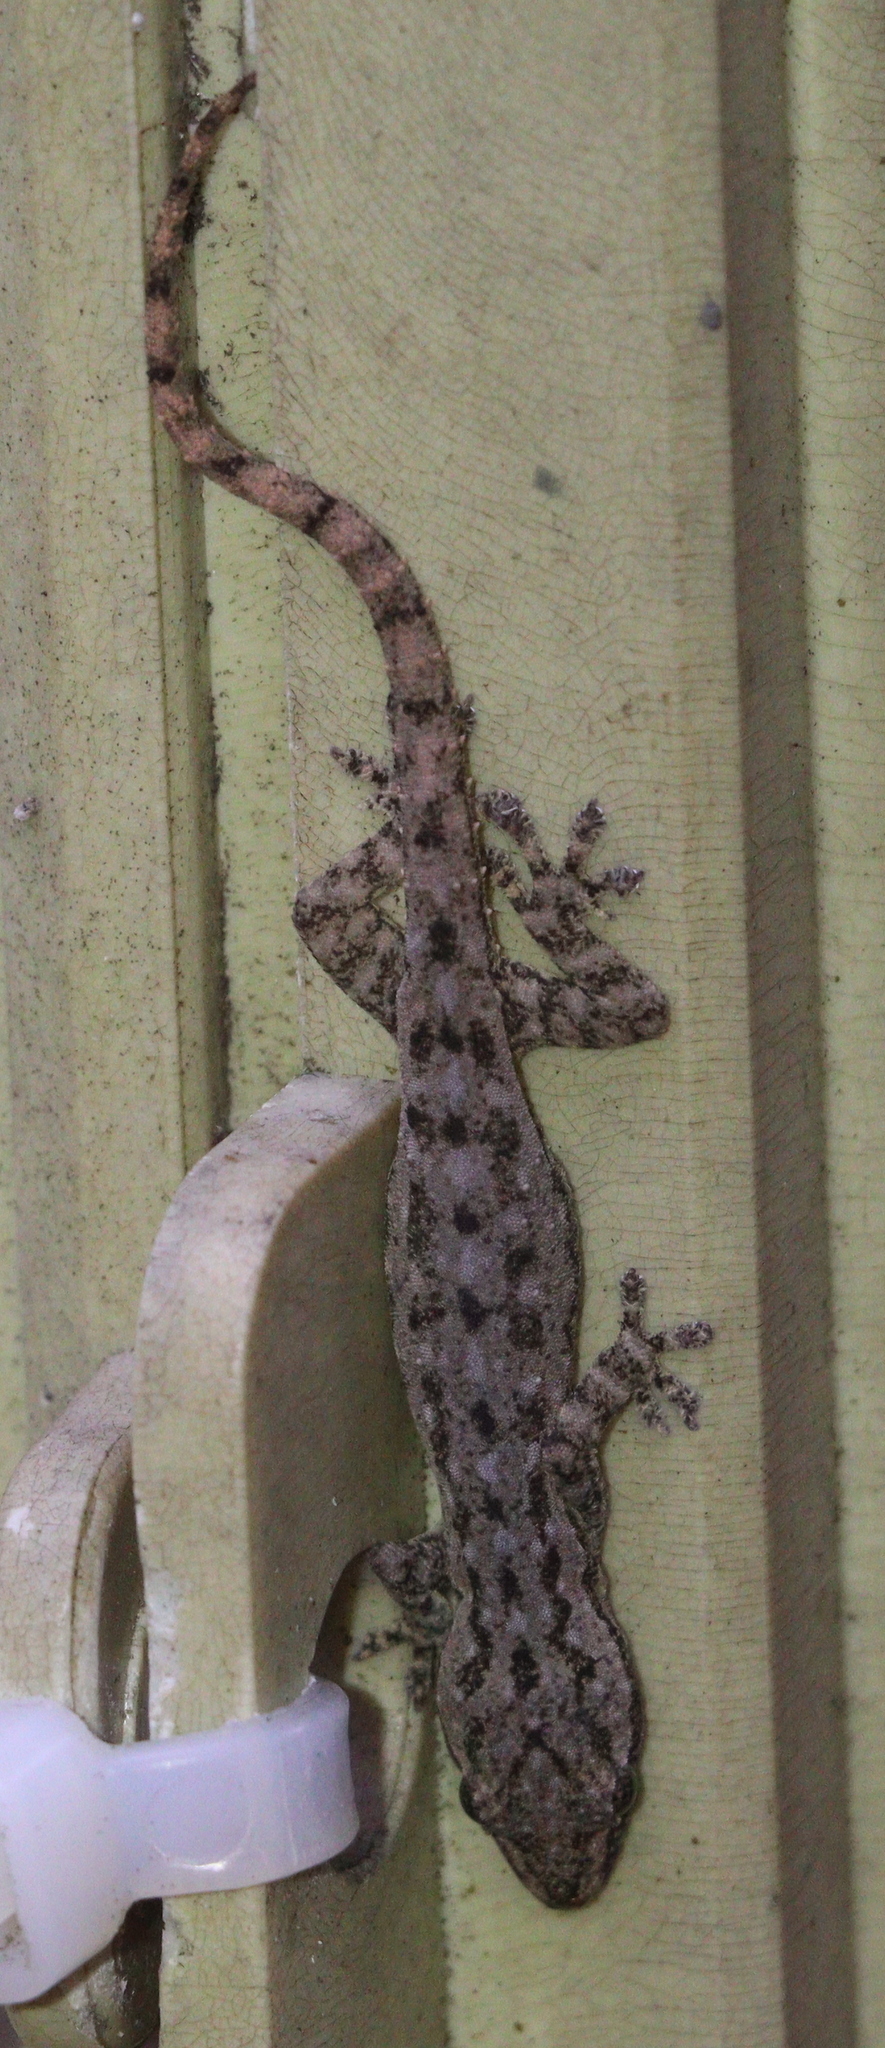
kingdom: Animalia
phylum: Chordata
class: Squamata
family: Gekkonidae
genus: Hemidactylus
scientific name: Hemidactylus frenatus
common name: Common house gecko
